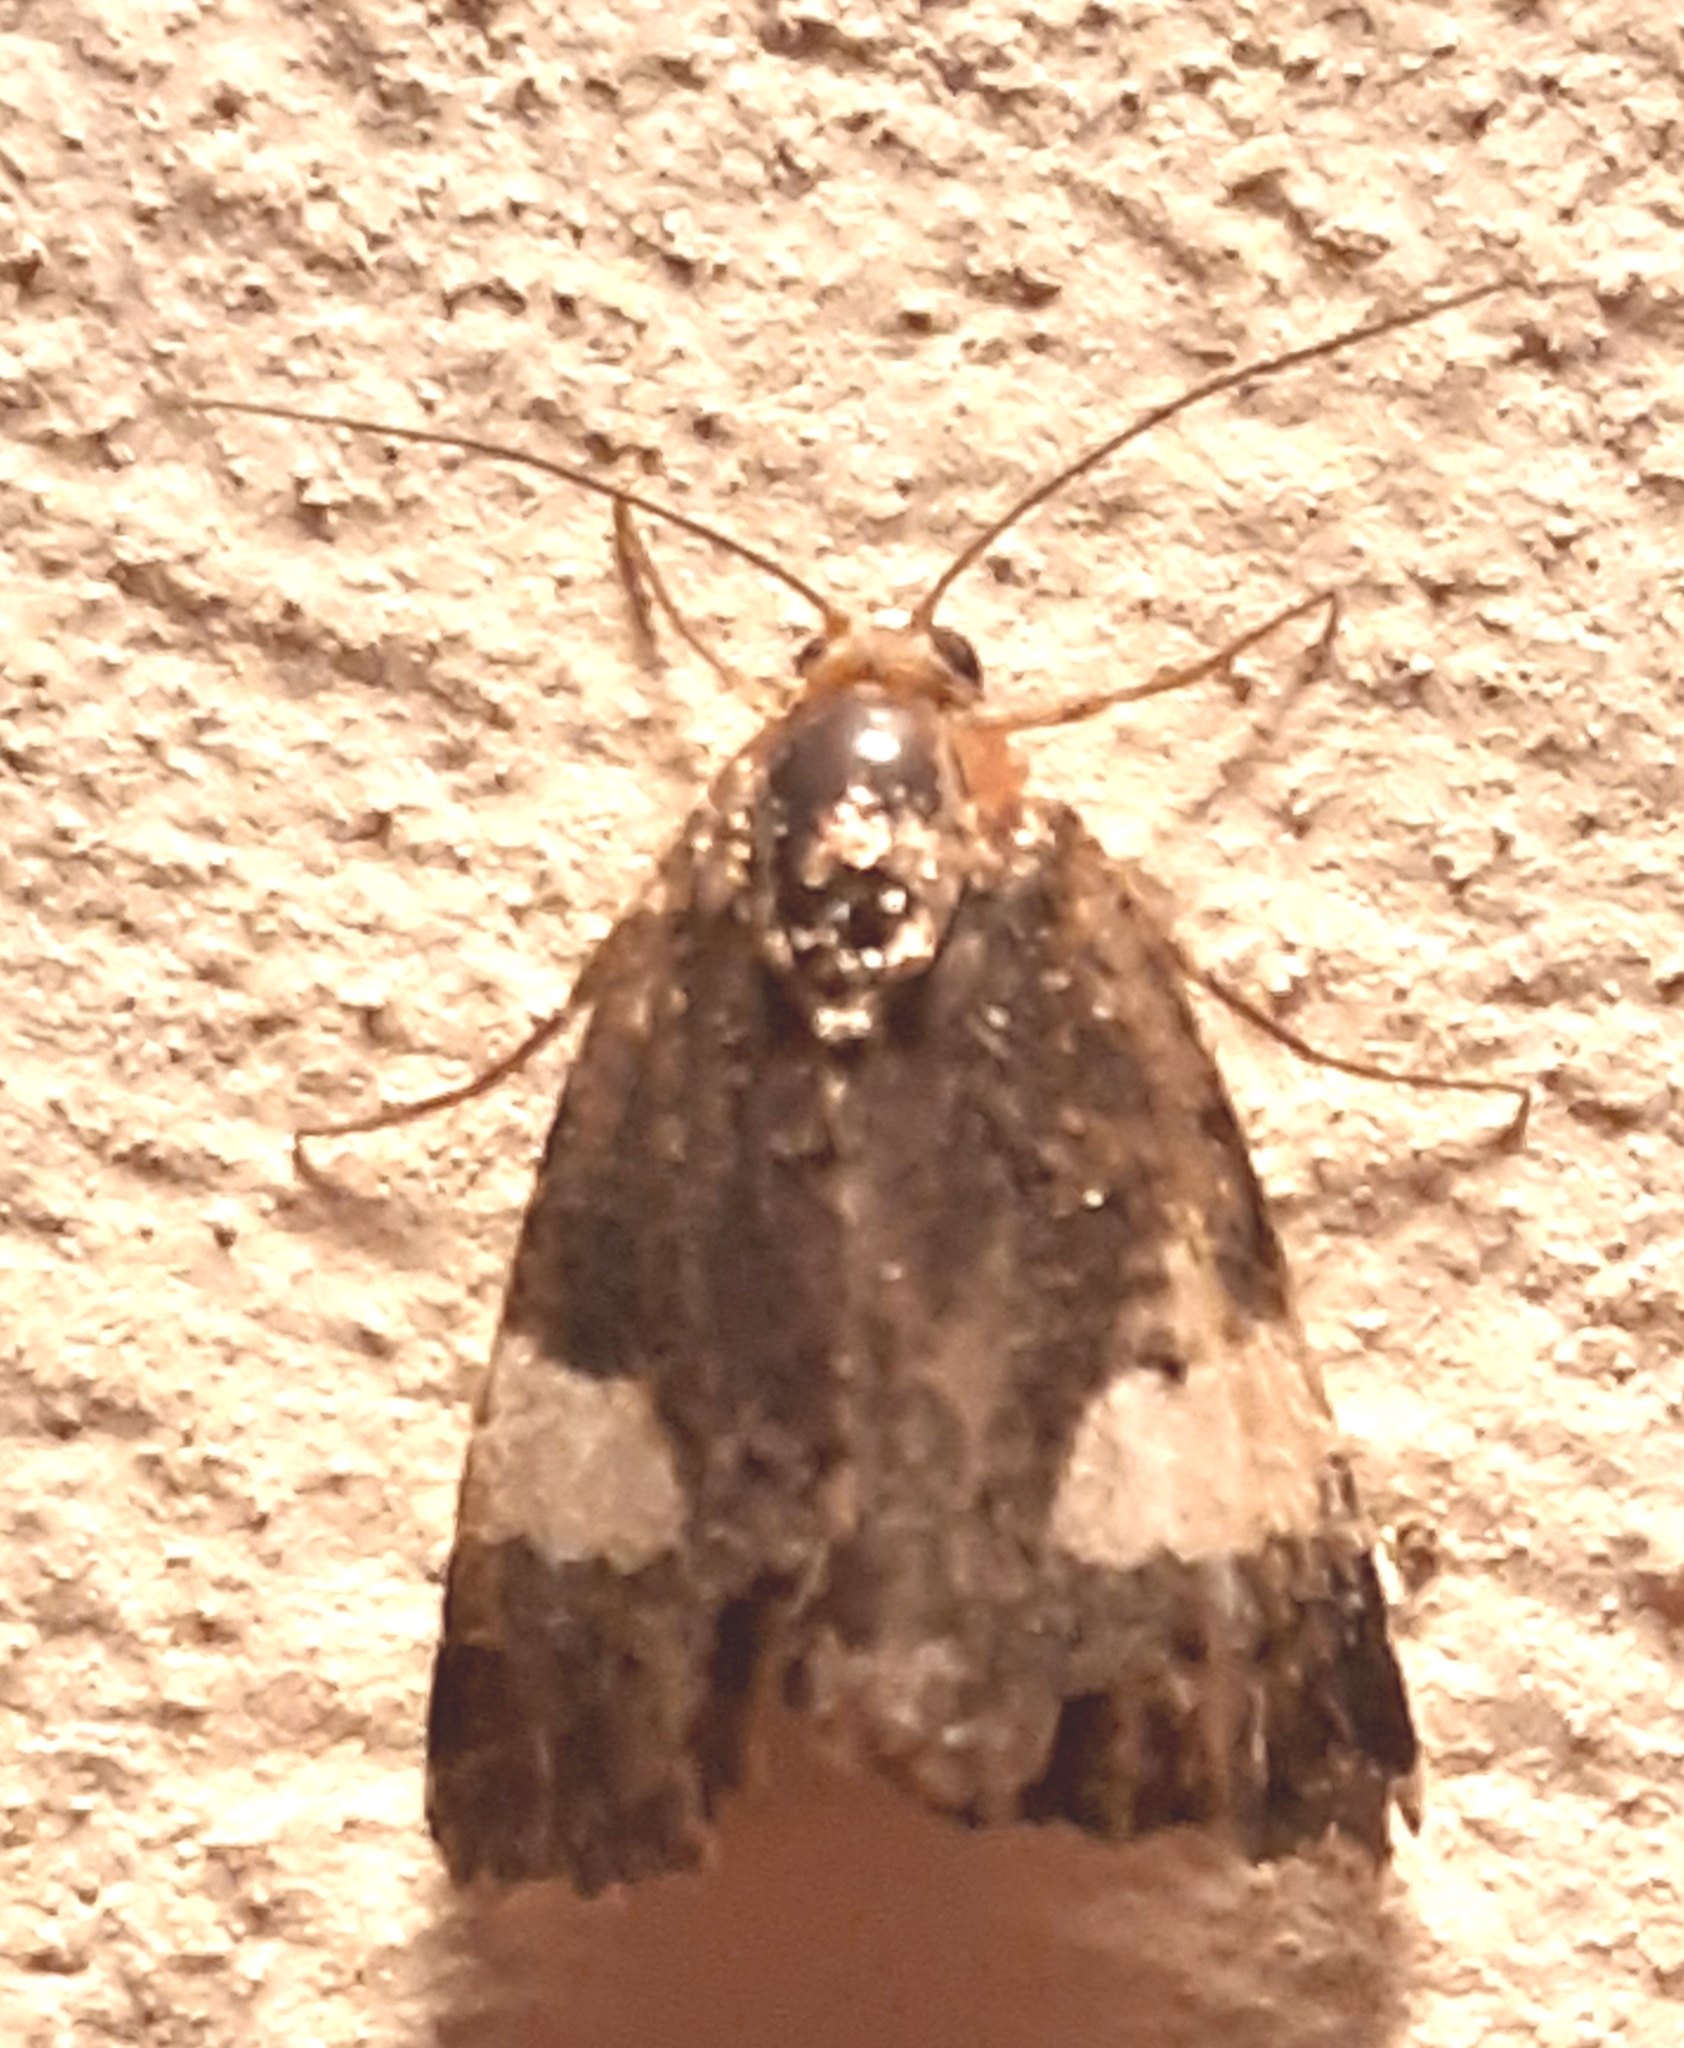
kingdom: Animalia
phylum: Arthropoda
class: Insecta
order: Lepidoptera
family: Erebidae
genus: Tyta
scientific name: Tyta luctuosa
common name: Four-spotted
